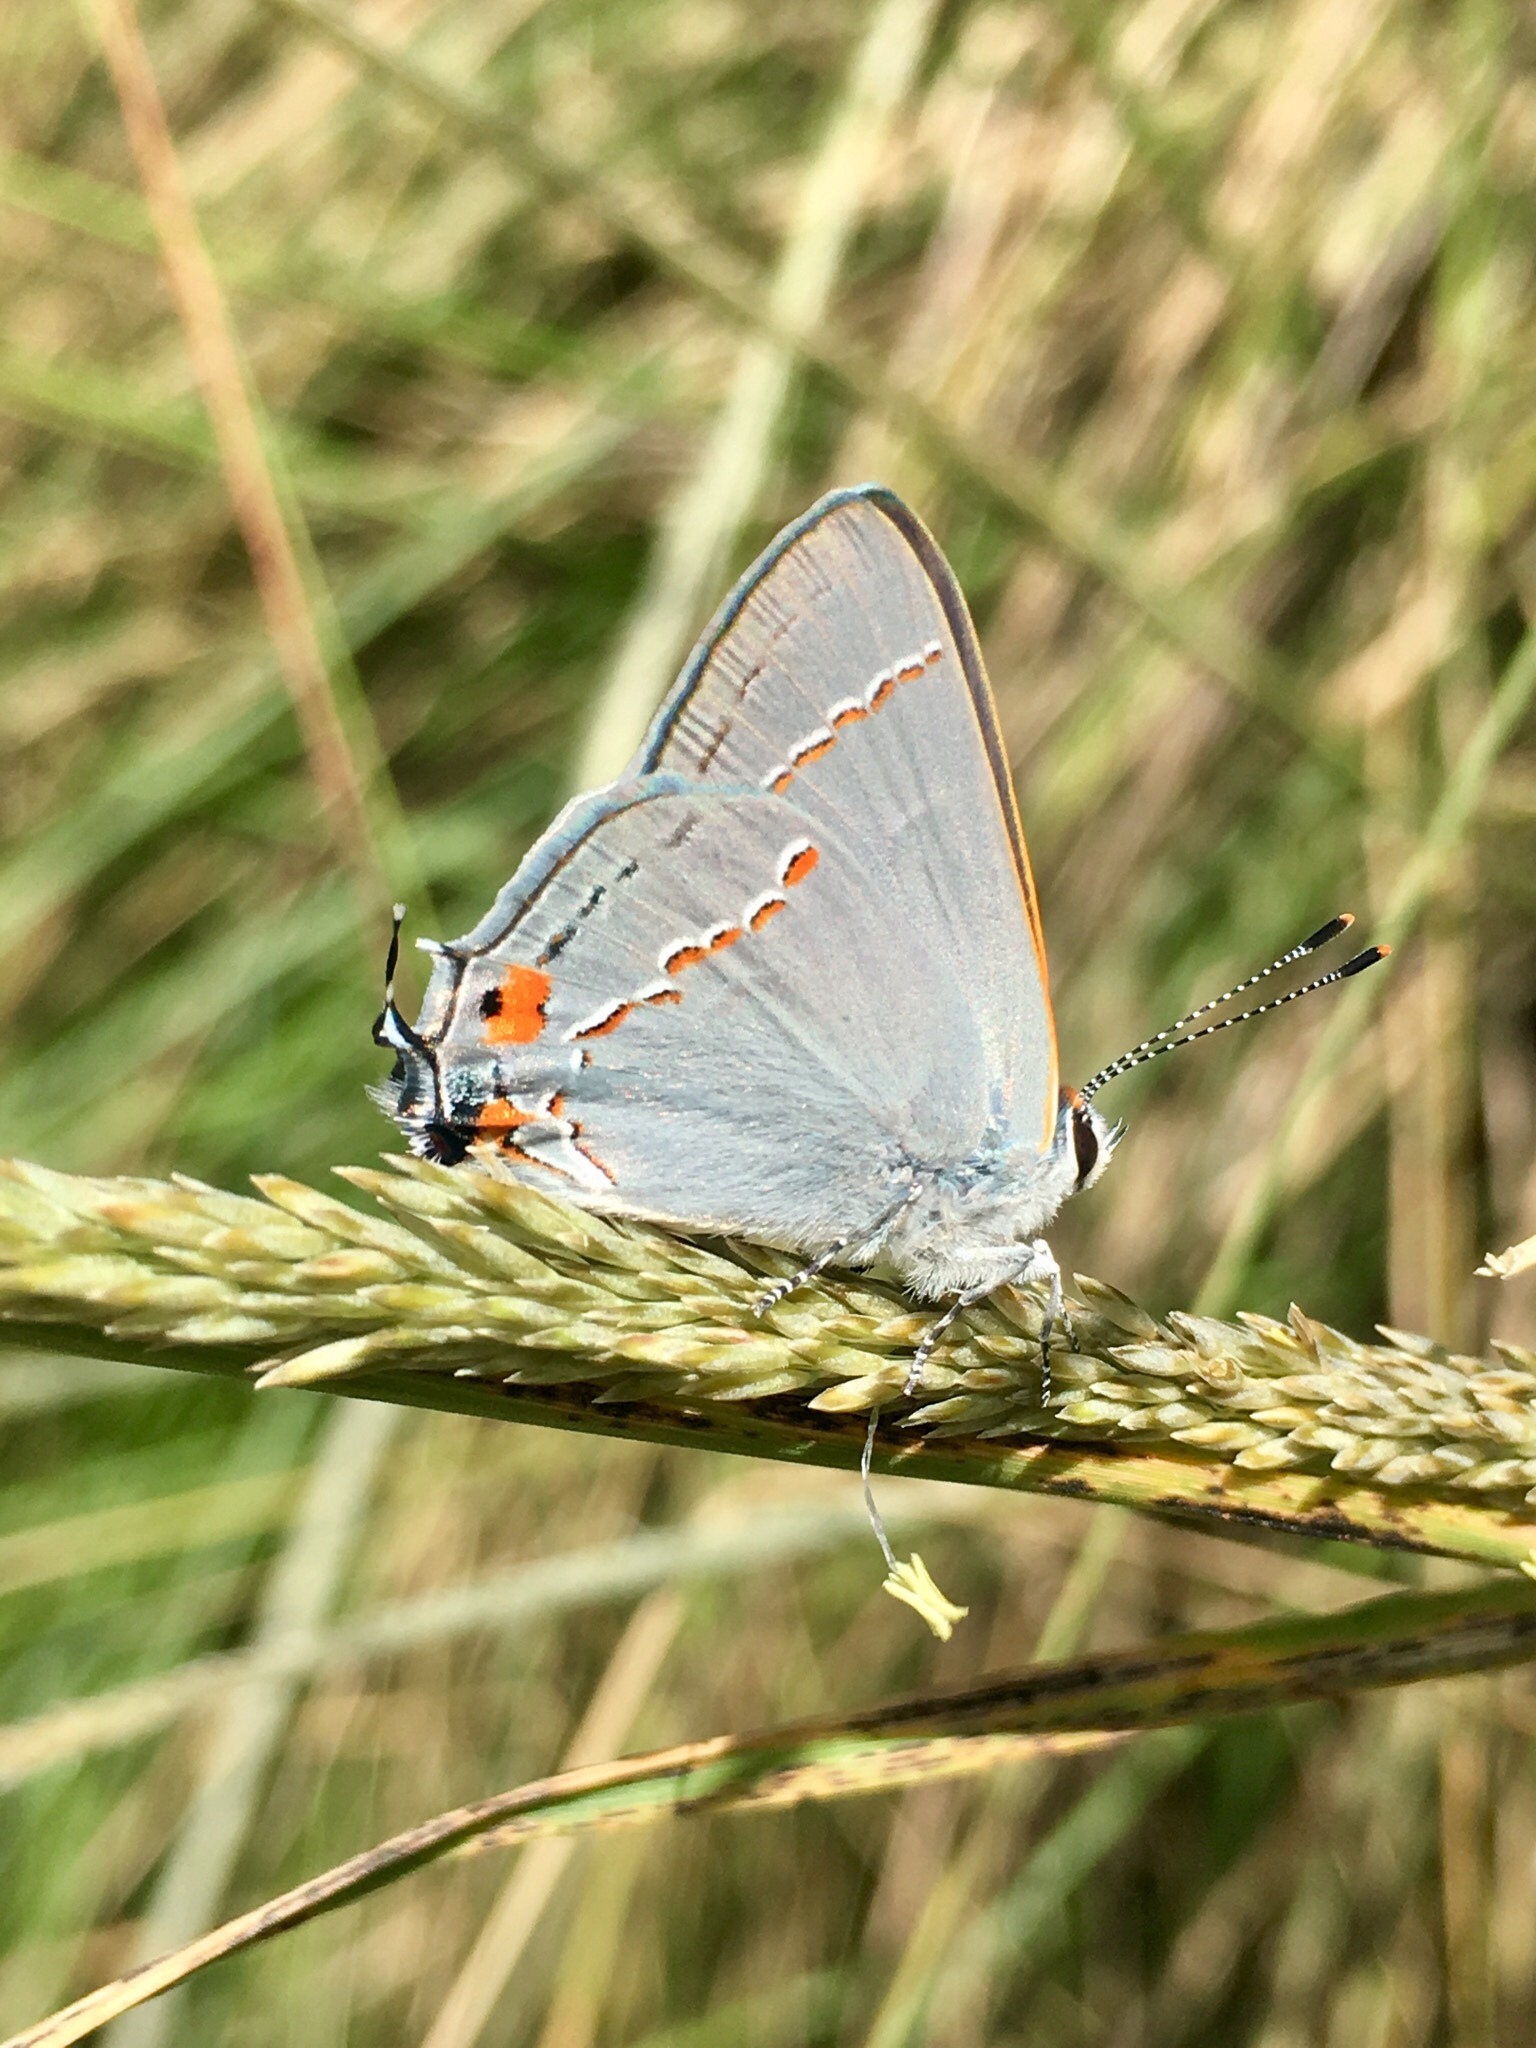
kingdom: Animalia
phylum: Arthropoda
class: Insecta
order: Lepidoptera
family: Lycaenidae
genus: Strymon
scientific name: Strymon melinus
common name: Gray hairstreak
